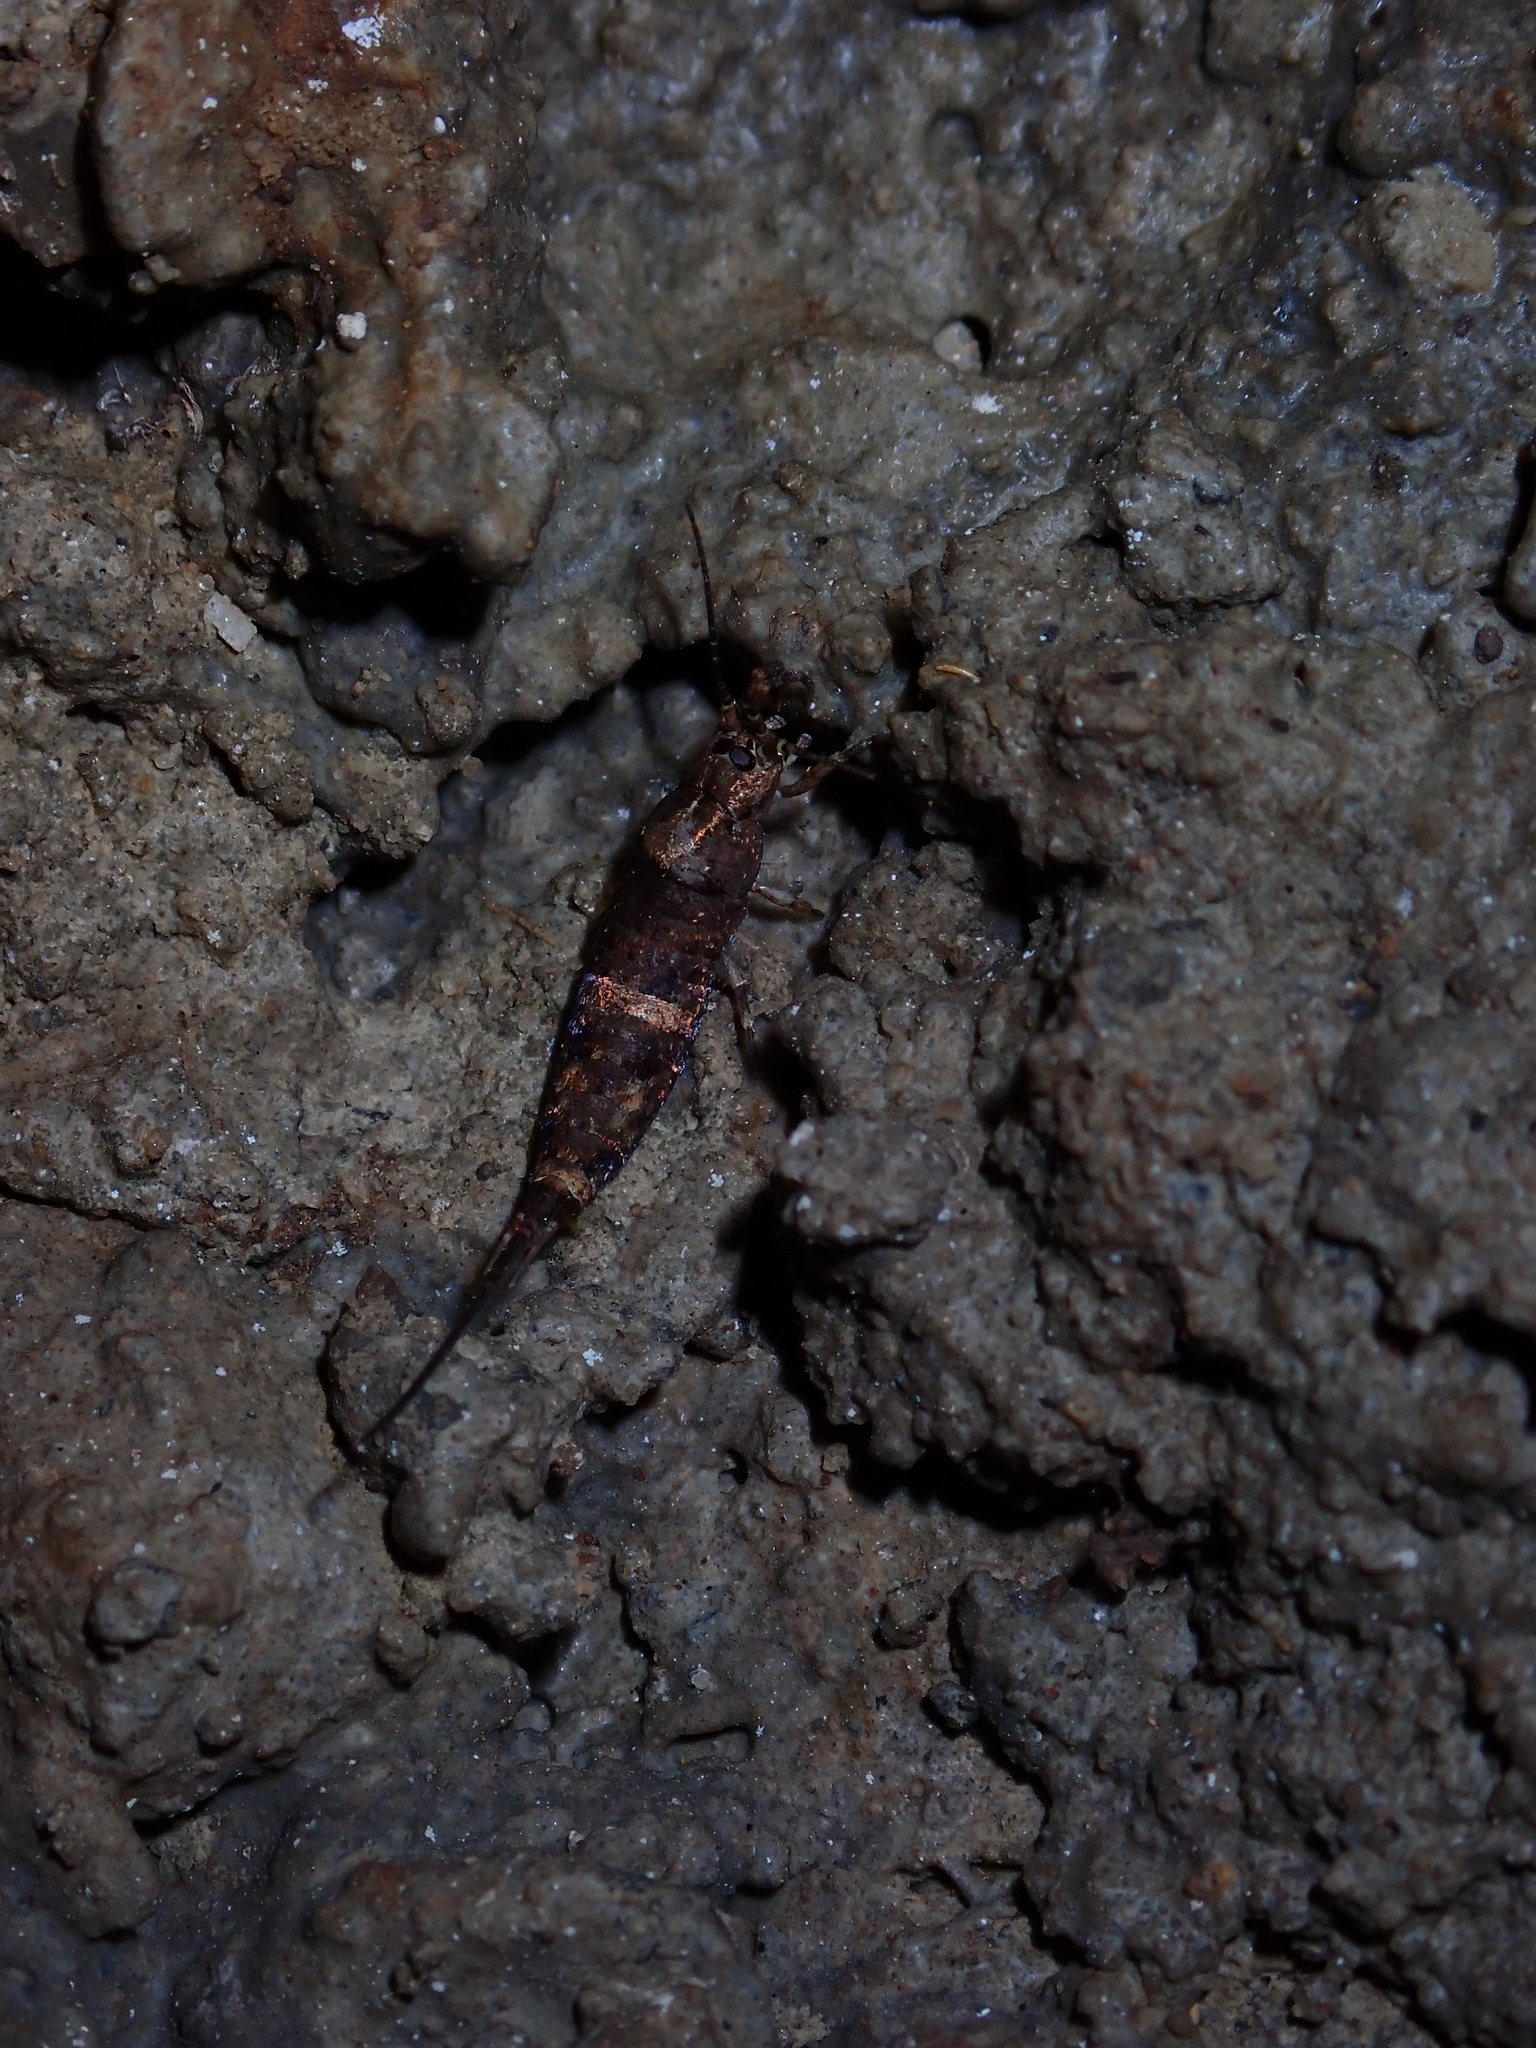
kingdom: Animalia
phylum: Arthropoda
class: Insecta
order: Archaeognatha
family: Machilidae
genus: Trigoniophthalmus
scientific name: Trigoniophthalmus alternatus
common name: Jumping bristletail
